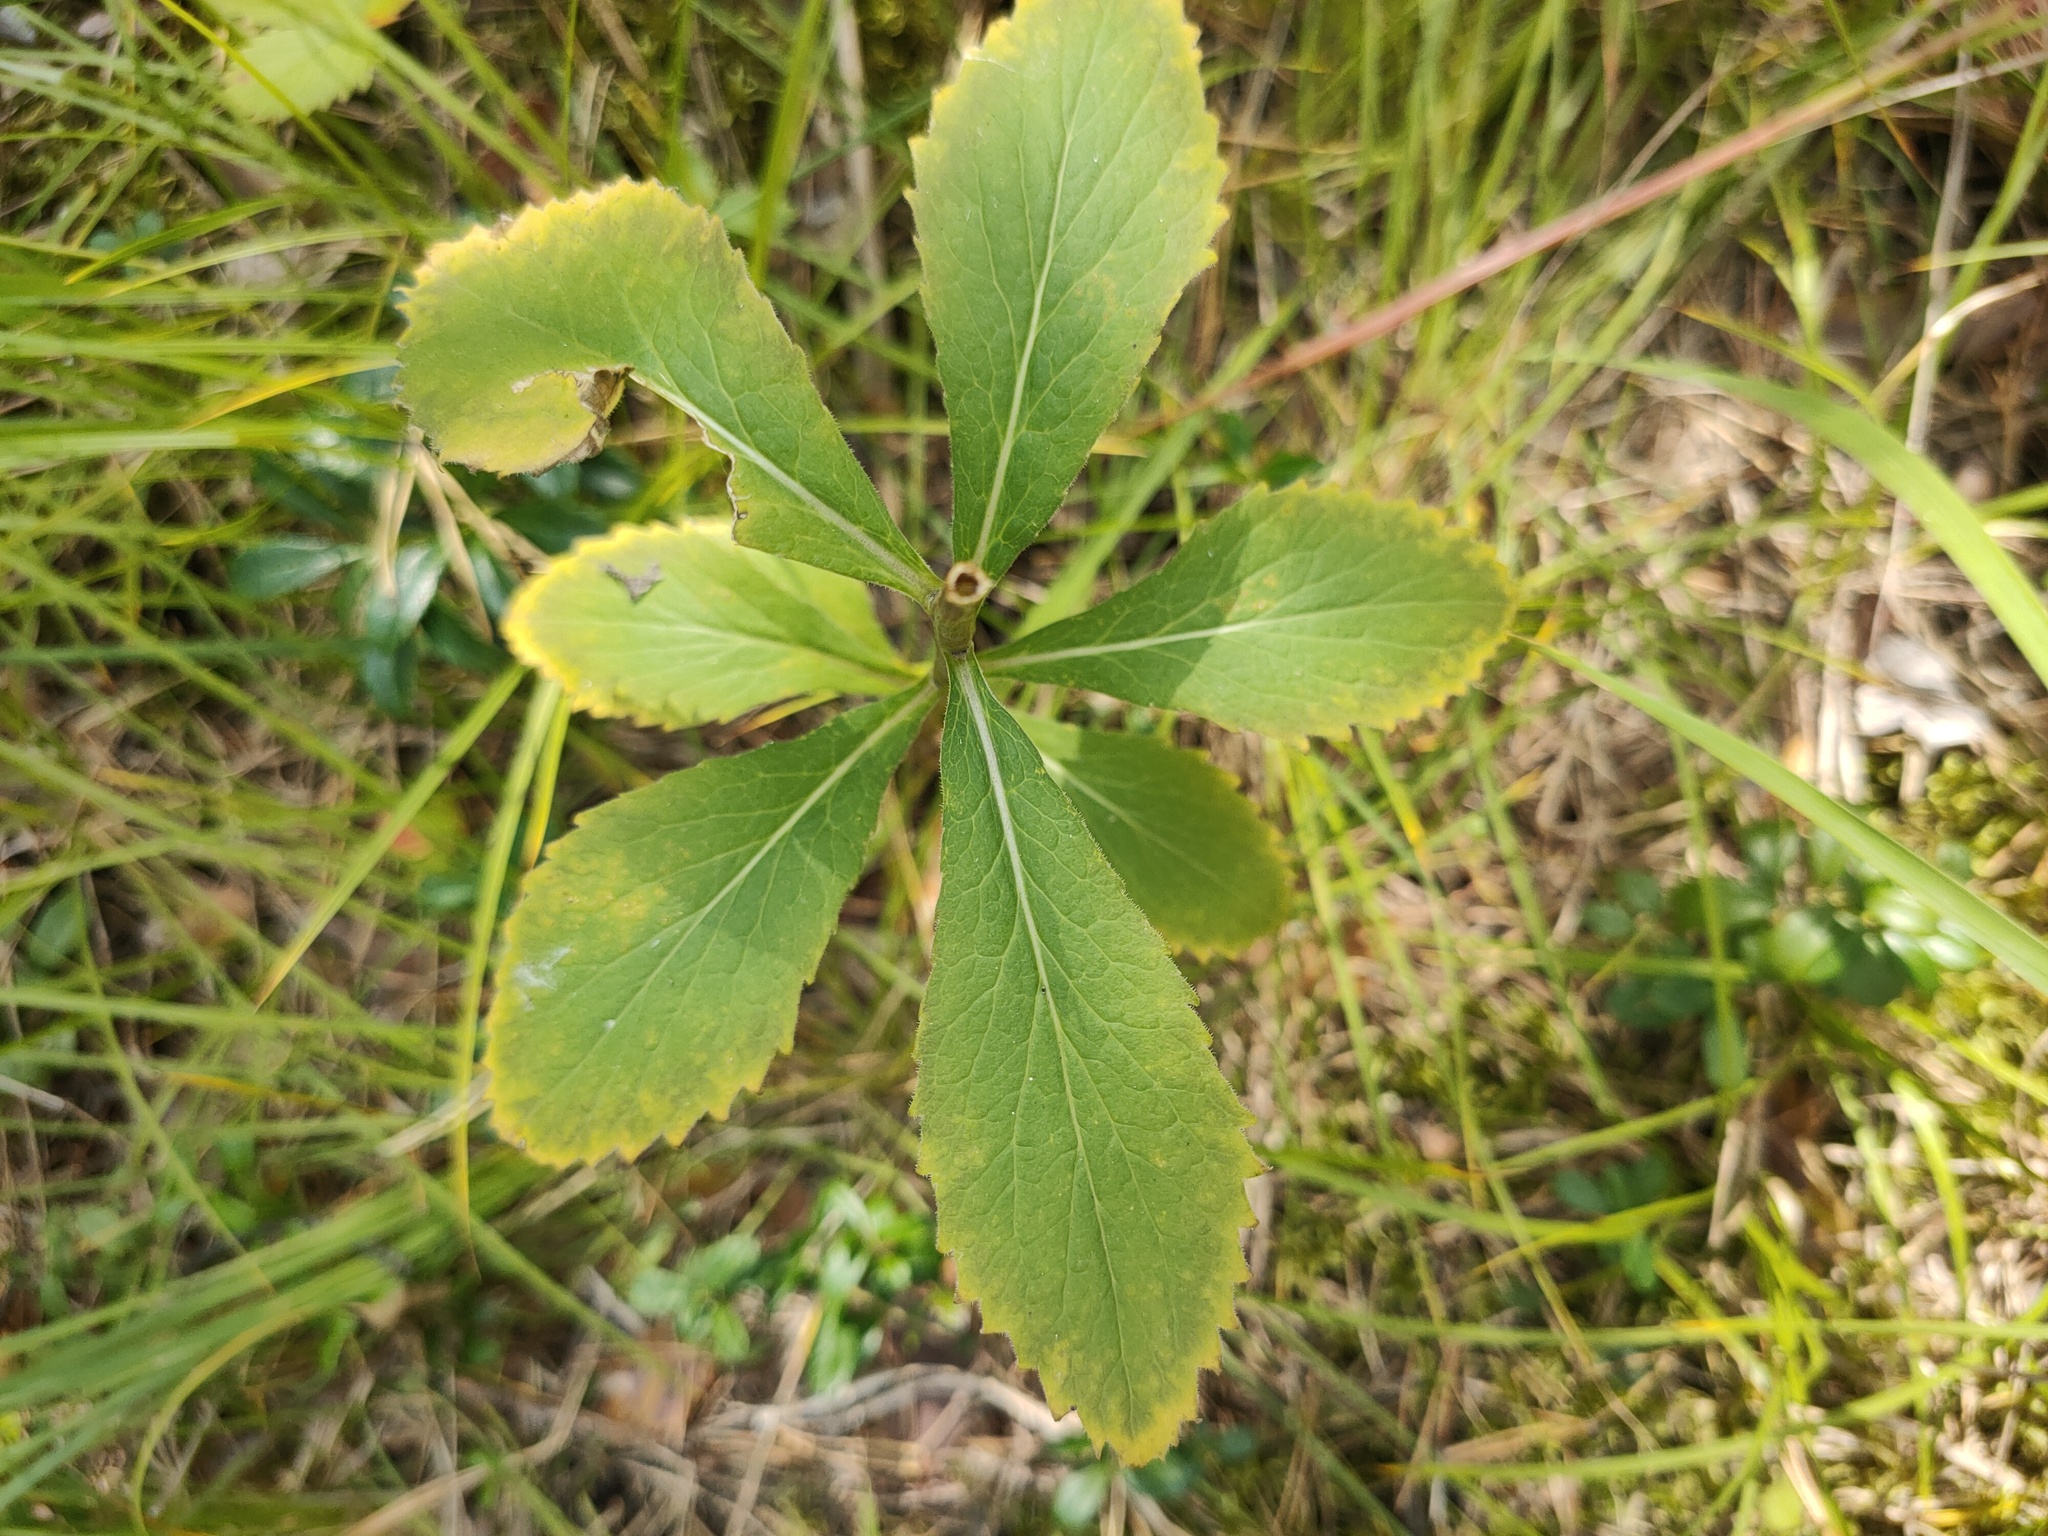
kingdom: Plantae
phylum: Tracheophyta
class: Magnoliopsida
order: Asterales
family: Campanulaceae
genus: Adenophora
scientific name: Adenophora liliifolia
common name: Lilyleaf ladybells
